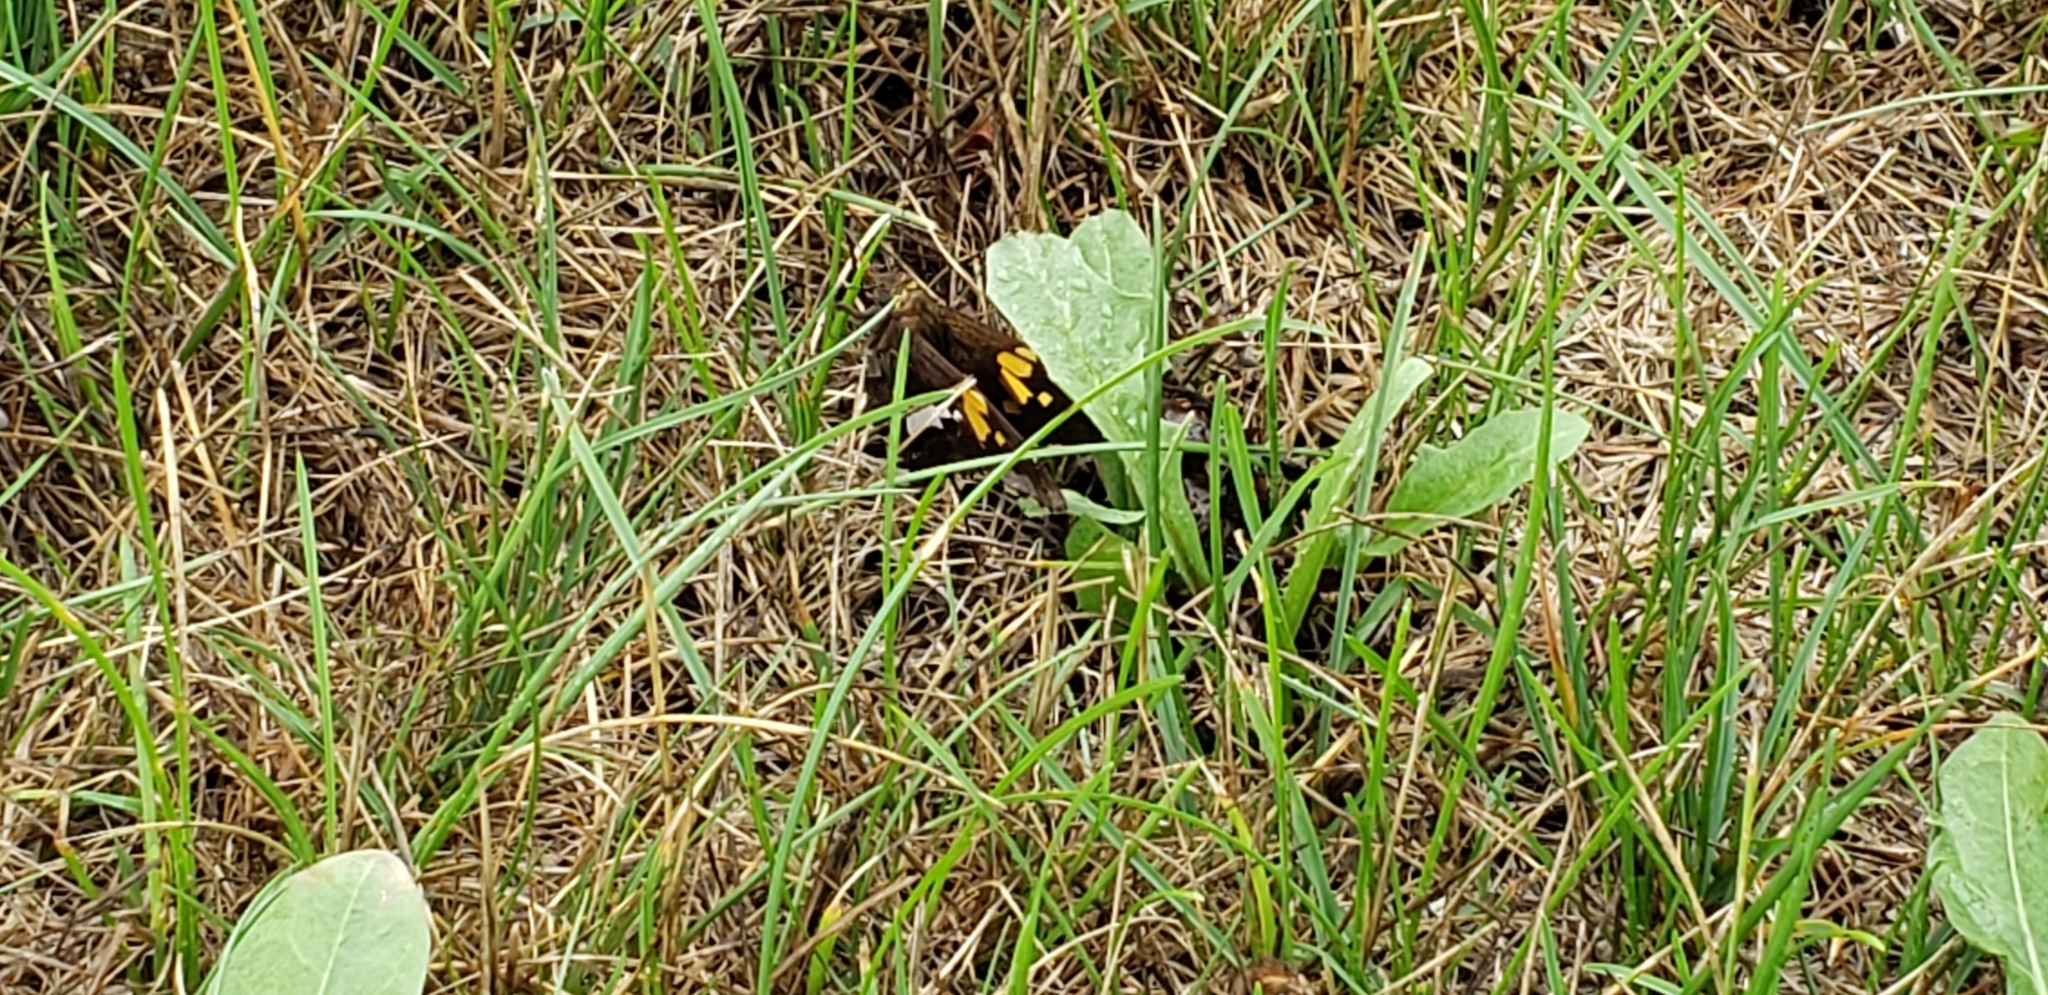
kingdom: Animalia
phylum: Arthropoda
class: Insecta
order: Lepidoptera
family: Hesperiidae
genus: Epargyreus
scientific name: Epargyreus clarus
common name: Silver-spotted skipper
